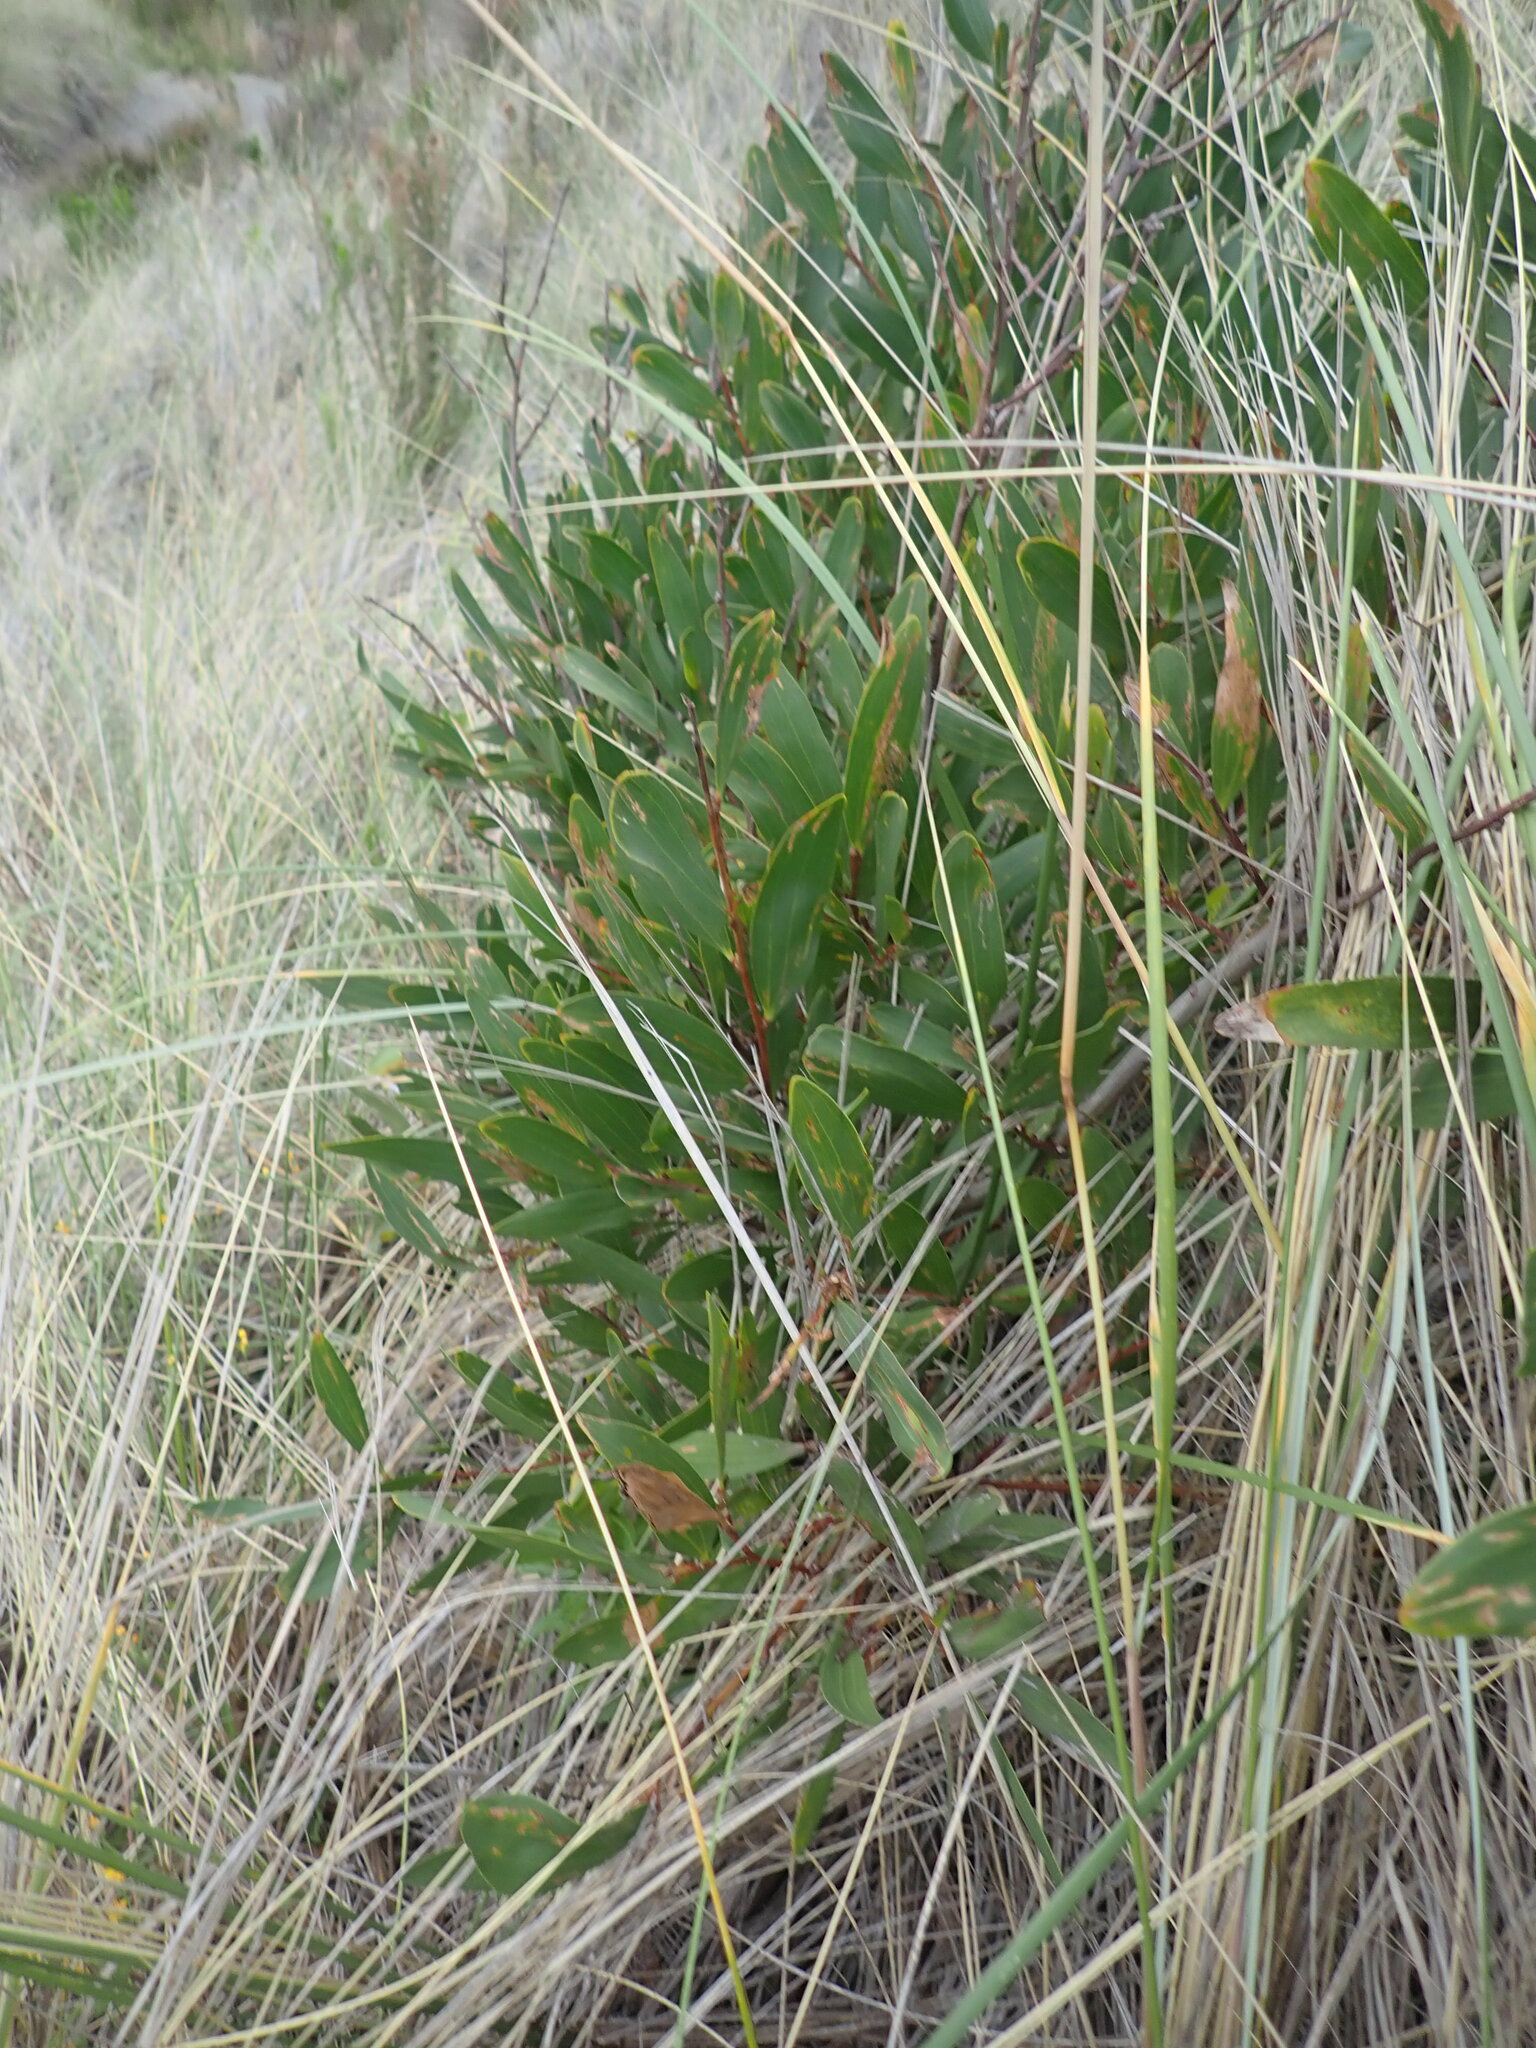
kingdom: Plantae
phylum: Tracheophyta
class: Magnoliopsida
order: Fabales
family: Fabaceae
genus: Acacia
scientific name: Acacia longifolia
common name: Sydney golden wattle
